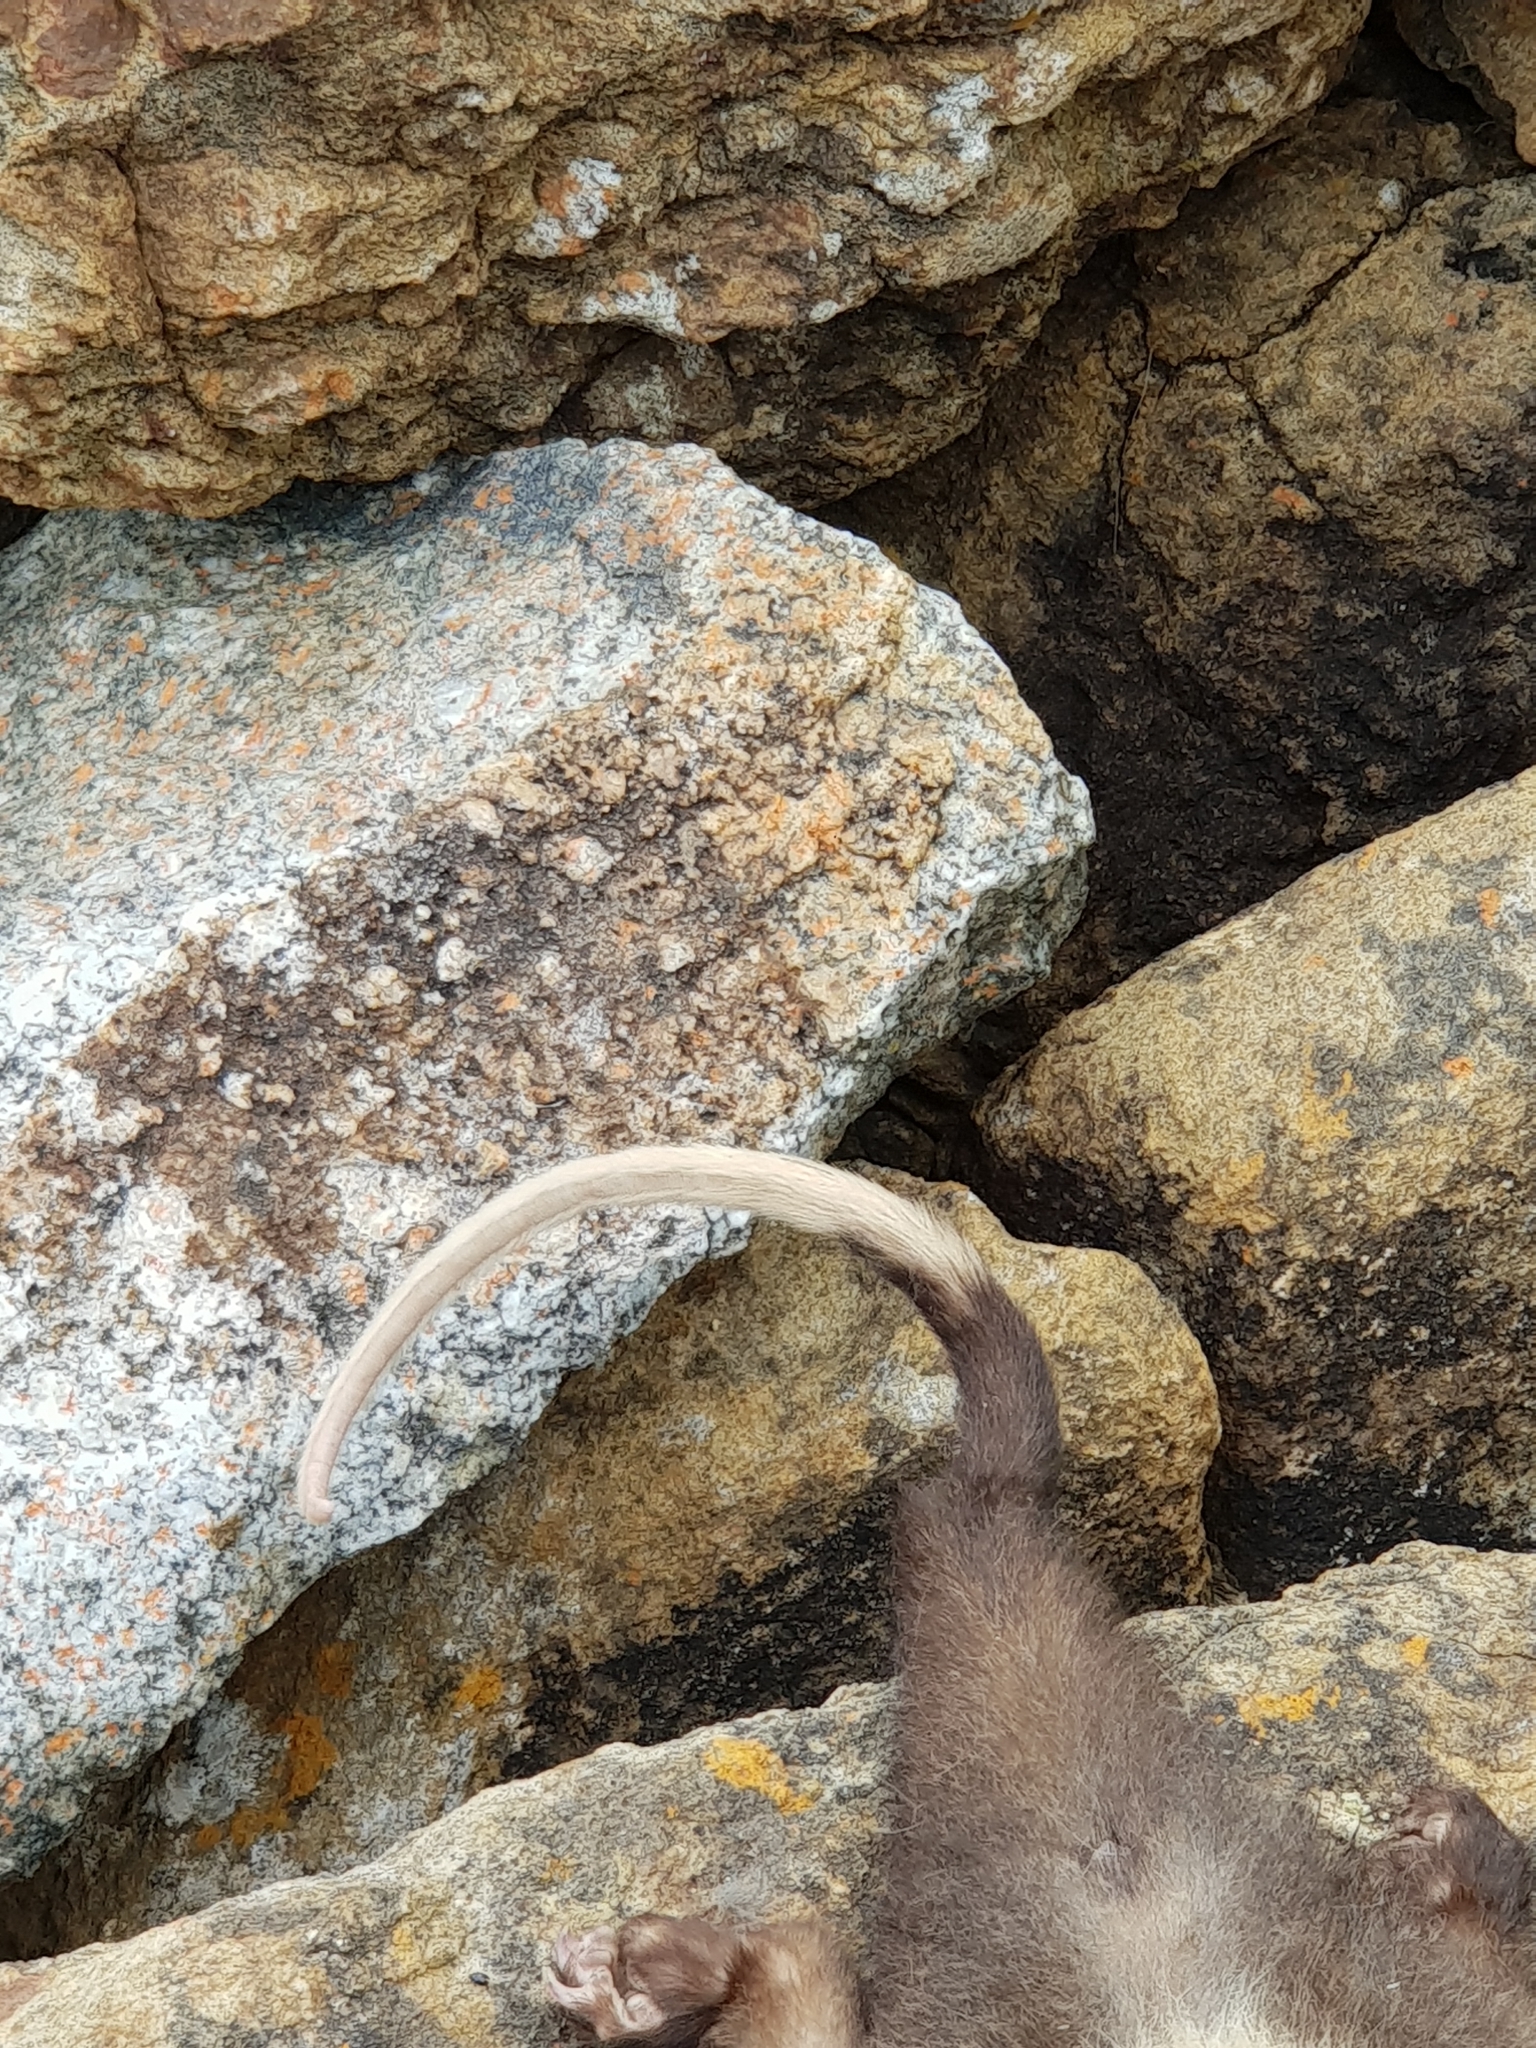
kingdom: Animalia
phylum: Chordata
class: Mammalia
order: Diprotodontia
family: Pseudocheiridae
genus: Pseudocheirus
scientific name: Pseudocheirus peregrinus
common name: Common ringtail possum
